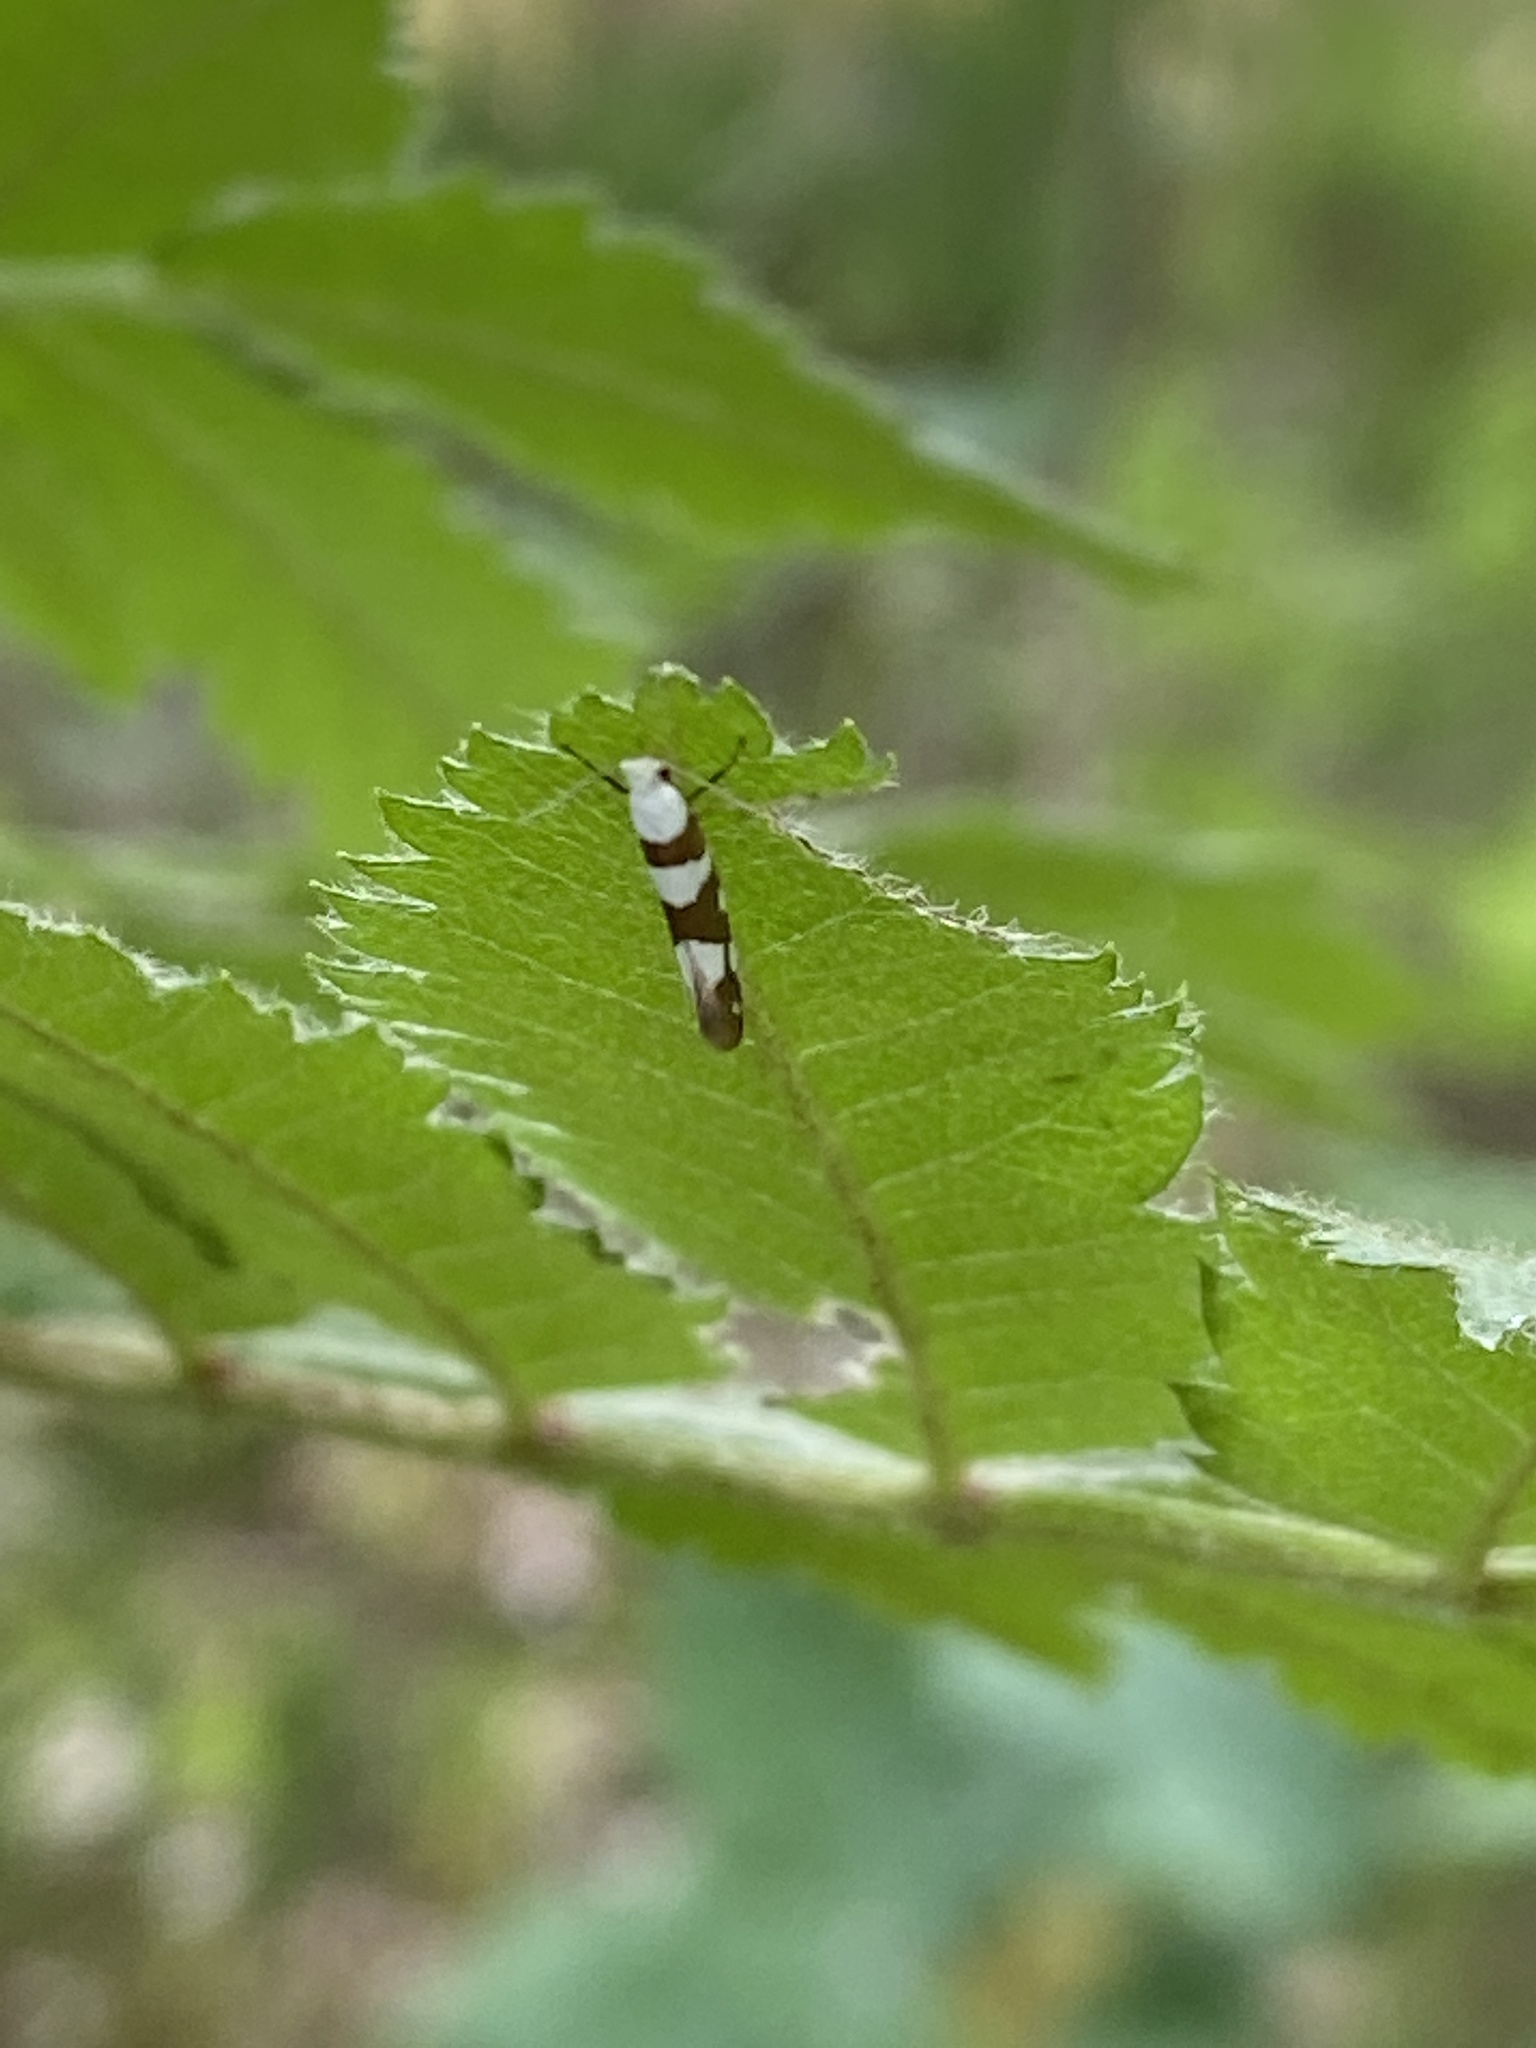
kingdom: Animalia
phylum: Arthropoda
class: Insecta
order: Lepidoptera
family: Argyresthiidae
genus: Argyresthia
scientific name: Argyresthia brockeella
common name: Gold-ribbon argent
